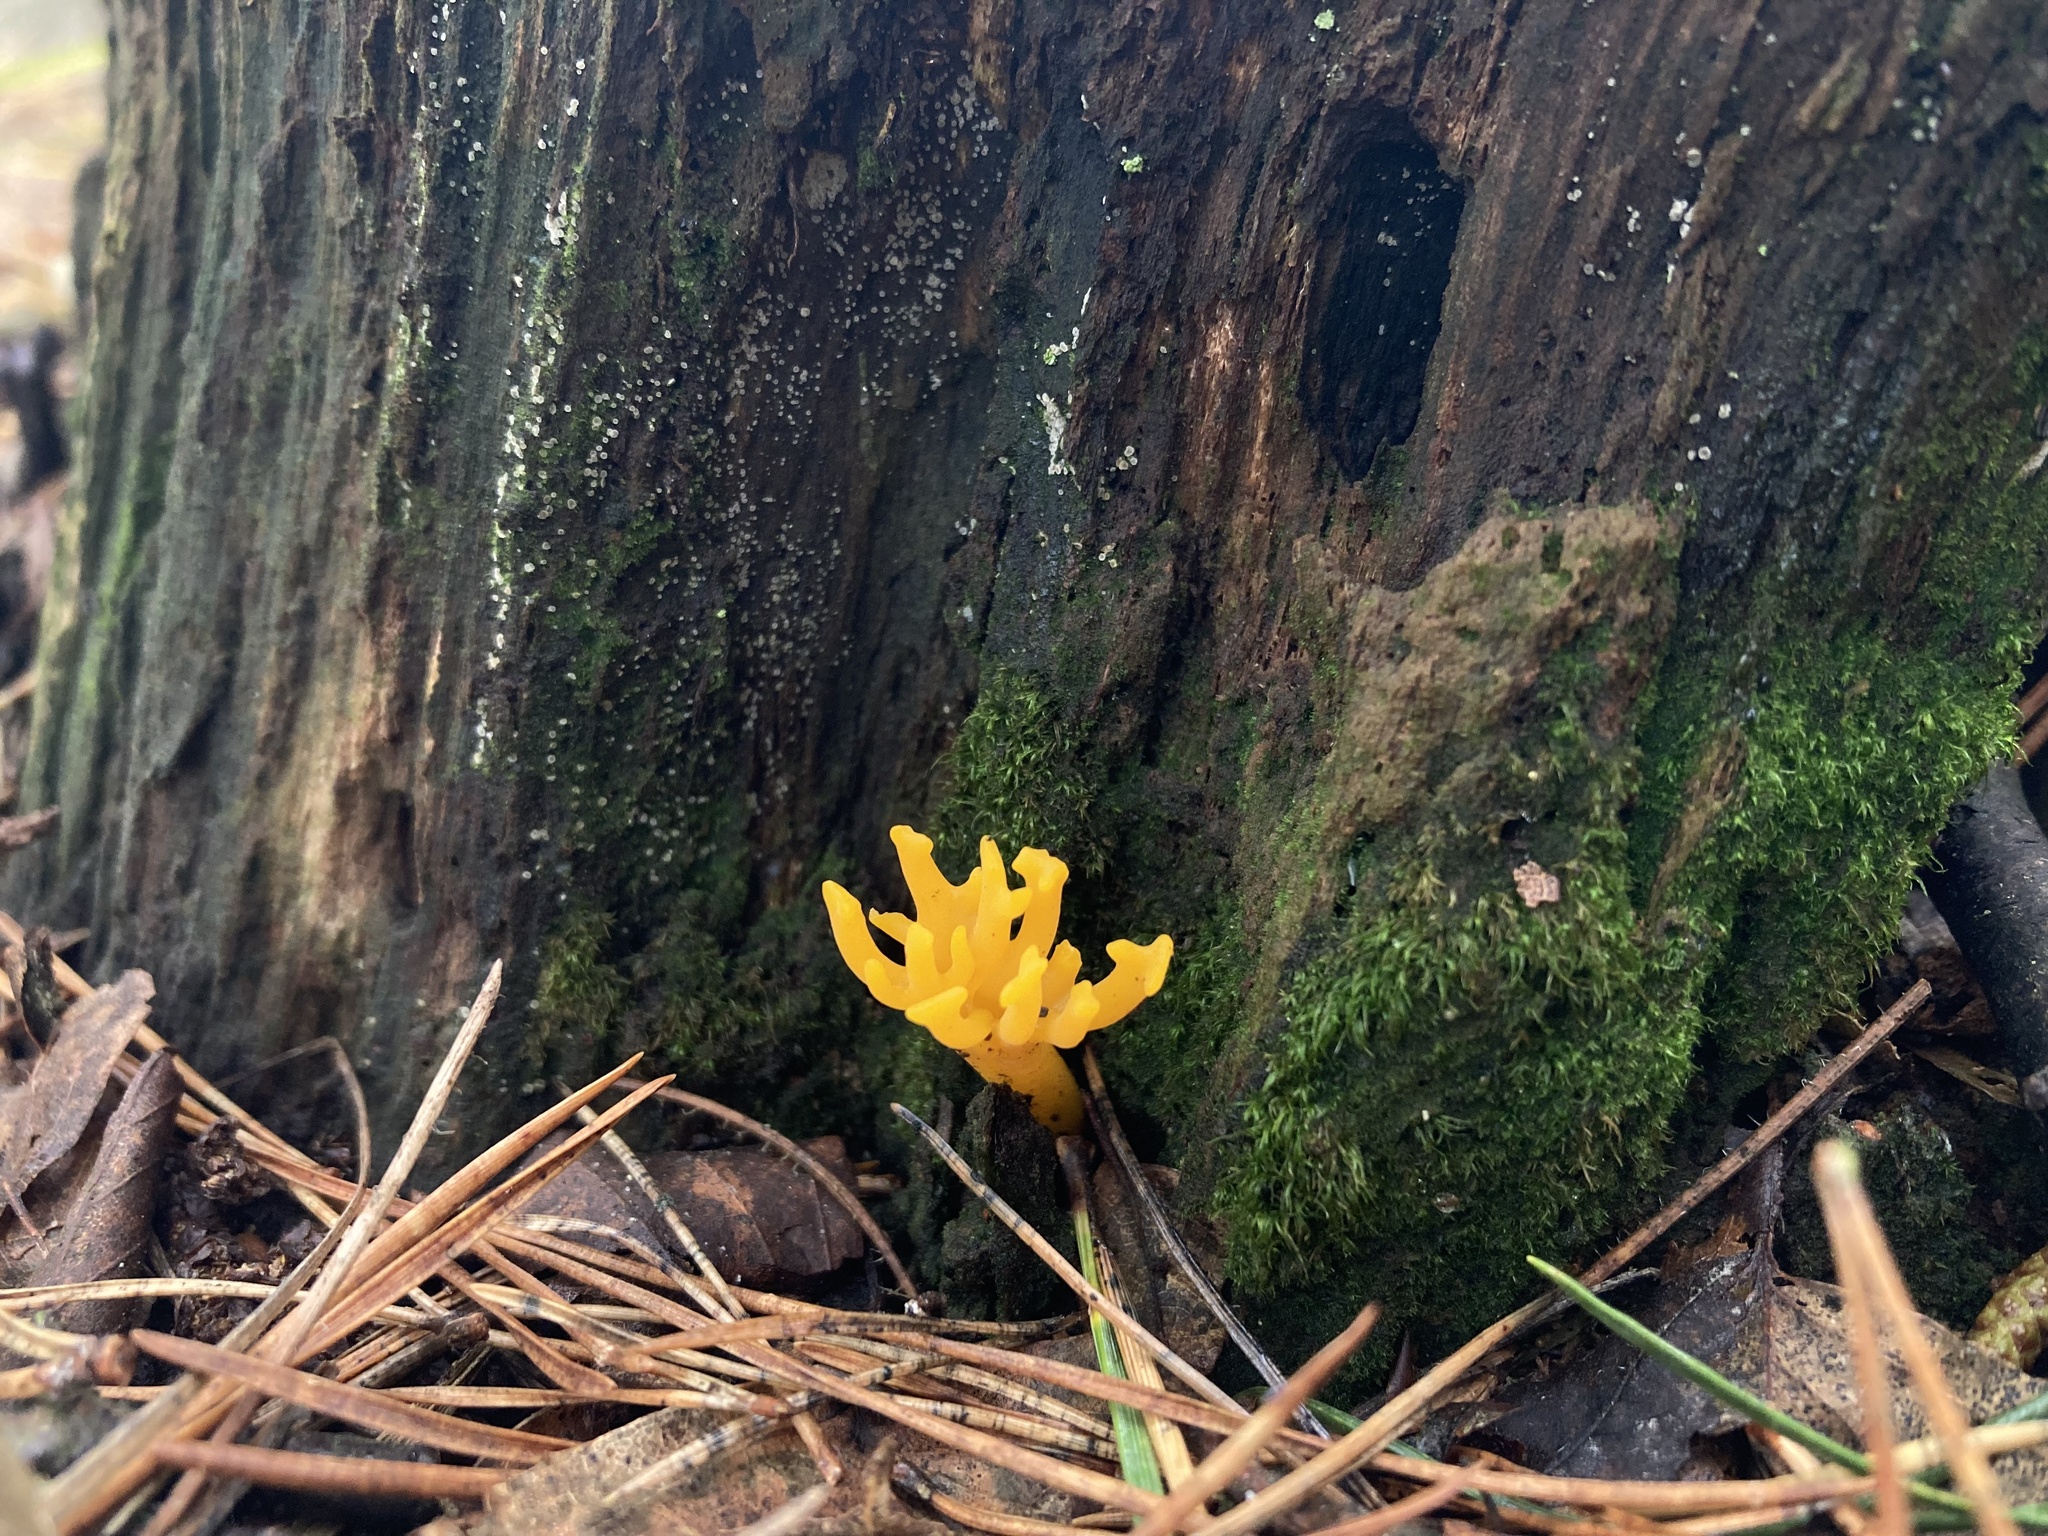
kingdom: Fungi
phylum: Basidiomycota
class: Dacrymycetes
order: Dacrymycetales
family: Dacrymycetaceae
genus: Calocera
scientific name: Calocera viscosa
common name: Yellow stagshorn
